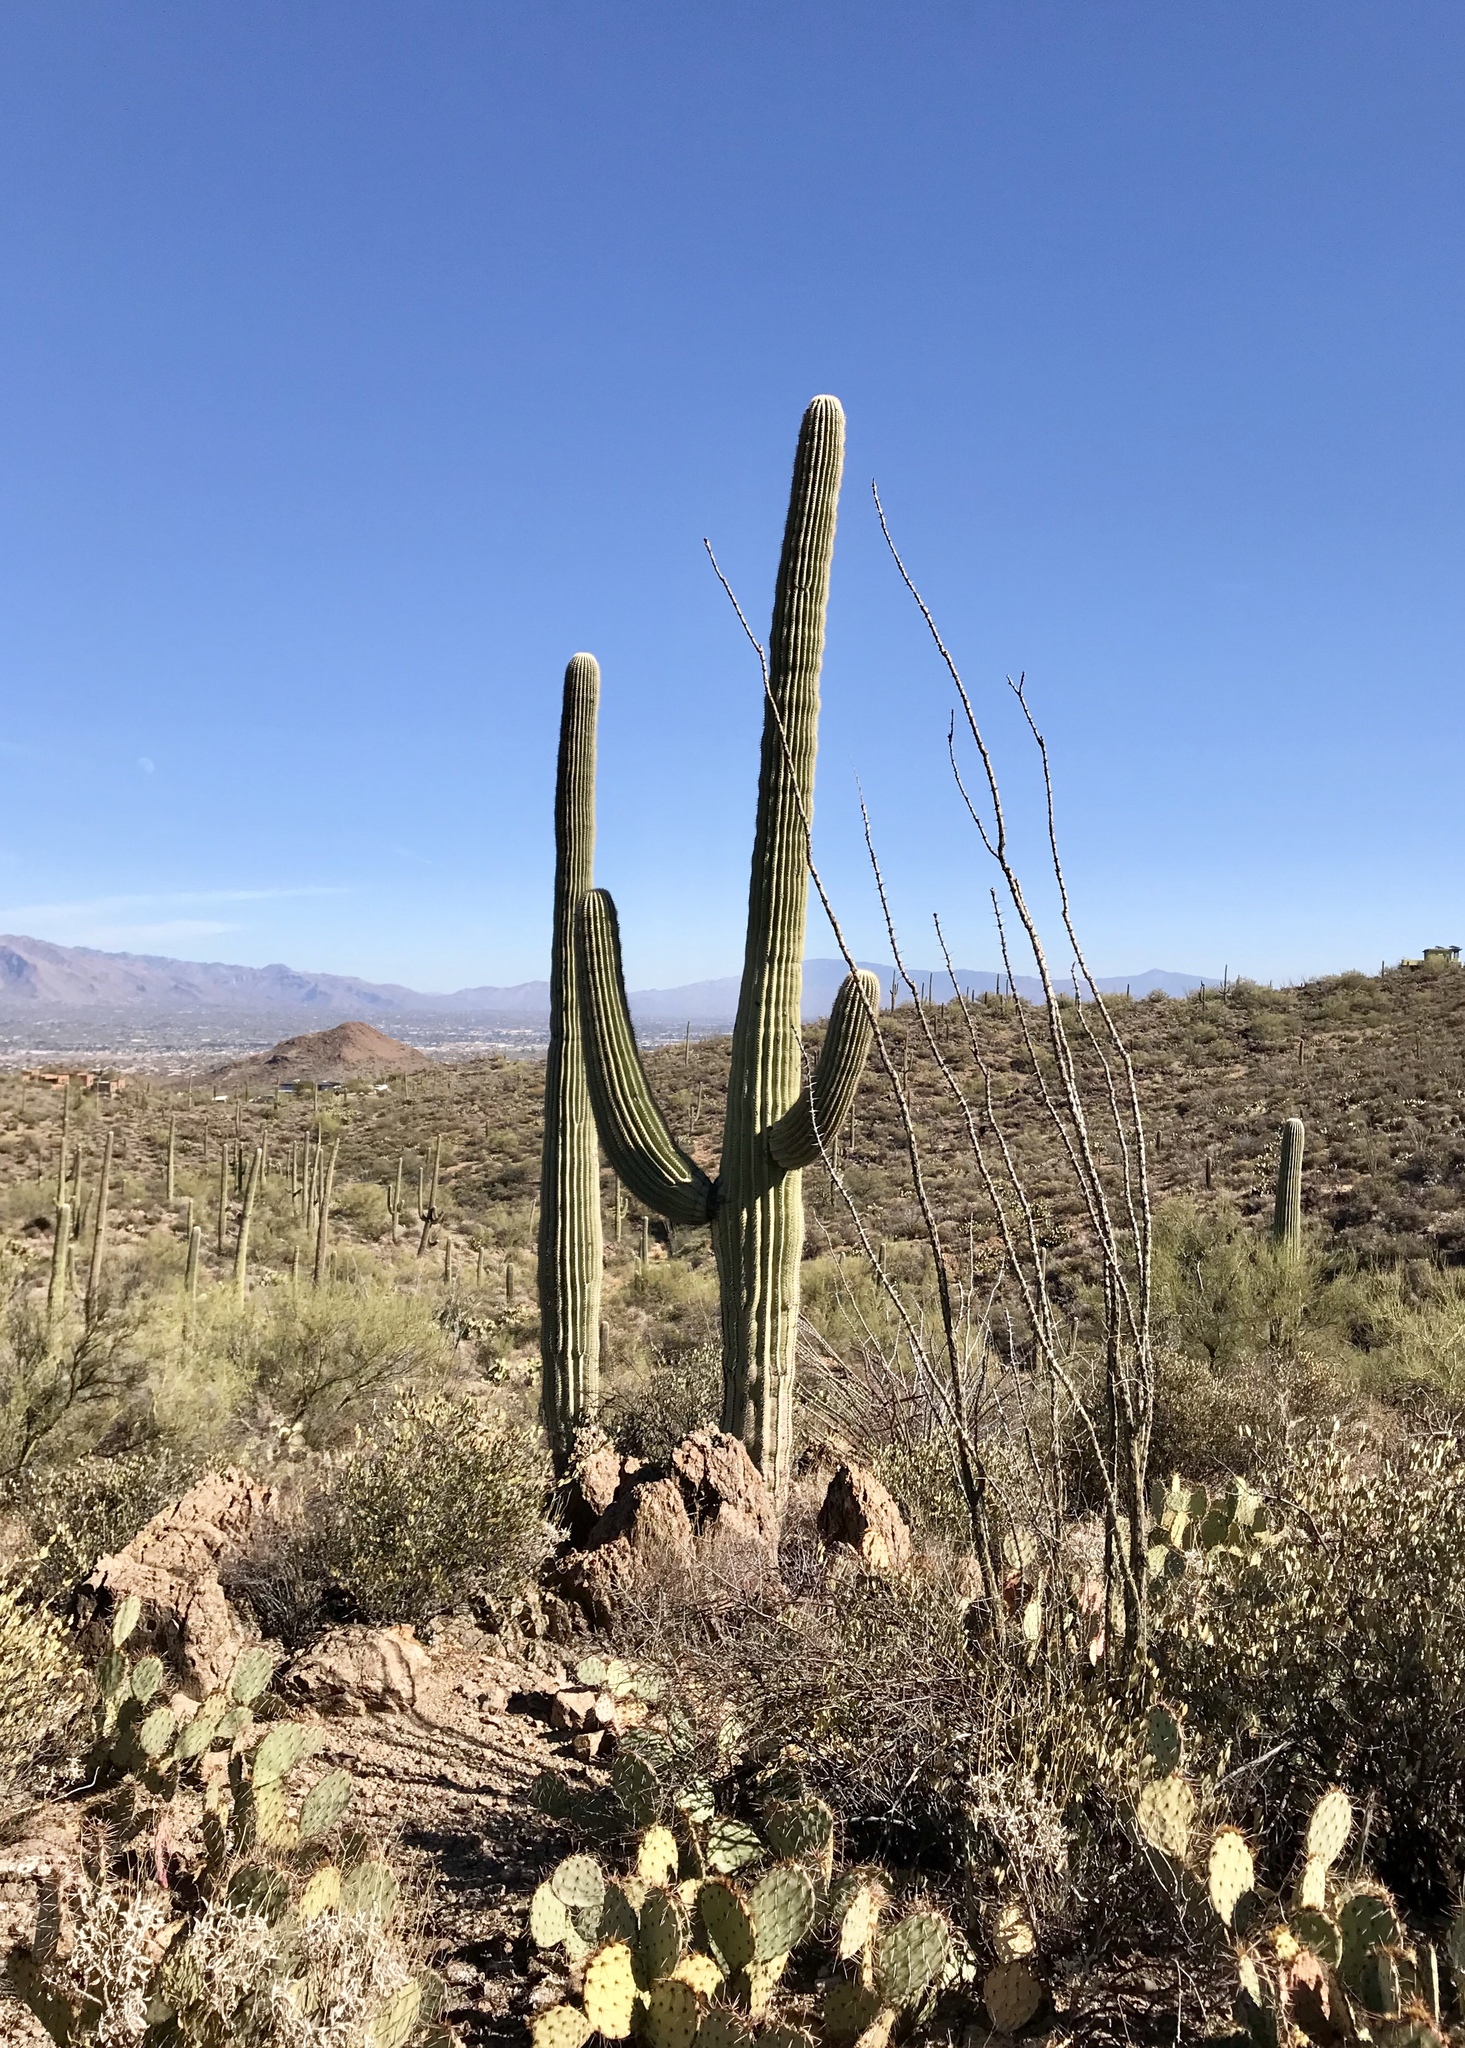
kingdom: Plantae
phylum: Tracheophyta
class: Magnoliopsida
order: Caryophyllales
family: Cactaceae
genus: Carnegiea
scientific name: Carnegiea gigantea
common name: Saguaro
